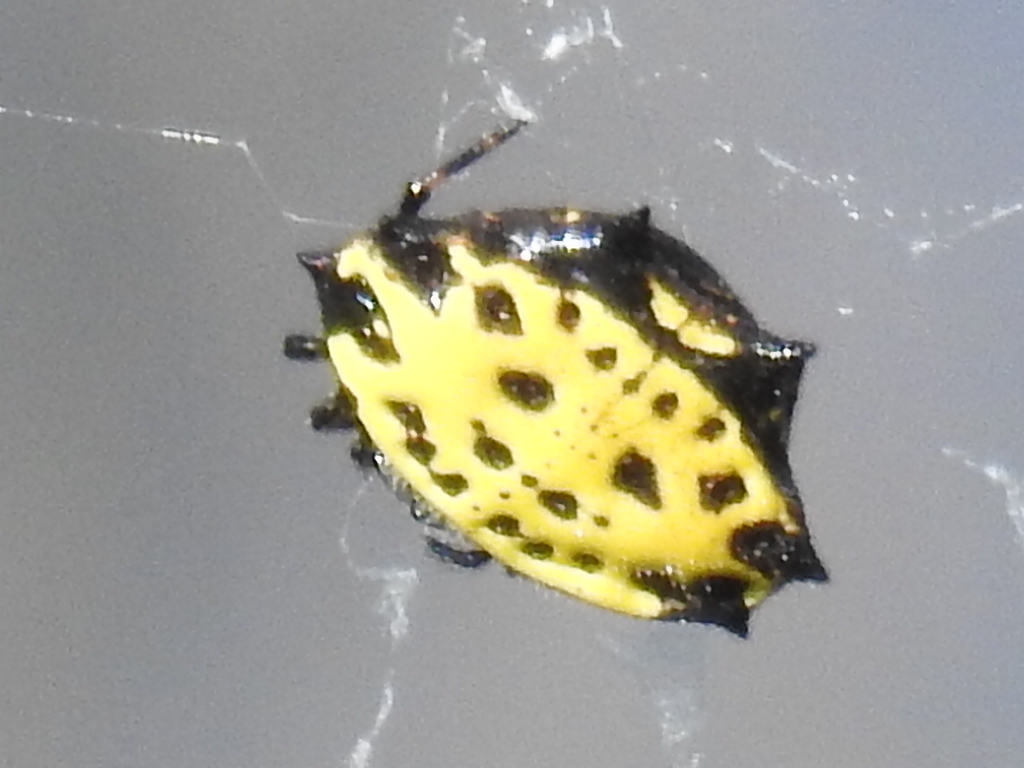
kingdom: Animalia
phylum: Arthropoda
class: Arachnida
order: Araneae
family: Araneidae
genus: Gasteracantha
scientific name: Gasteracantha cancriformis
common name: Orb weavers
